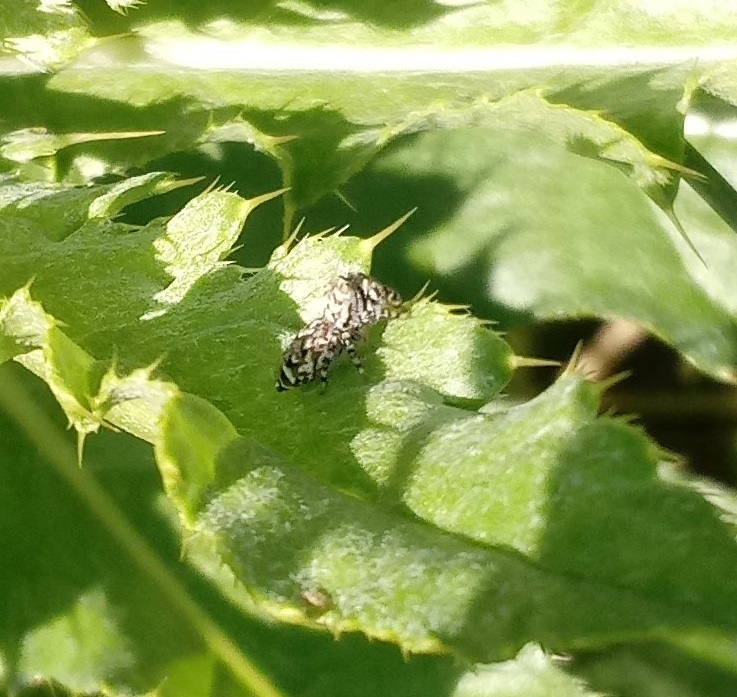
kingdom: Animalia
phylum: Arthropoda
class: Arachnida
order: Araneae
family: Salticidae
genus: Pelegrina
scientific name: Pelegrina galathea
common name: Jumping spiders
